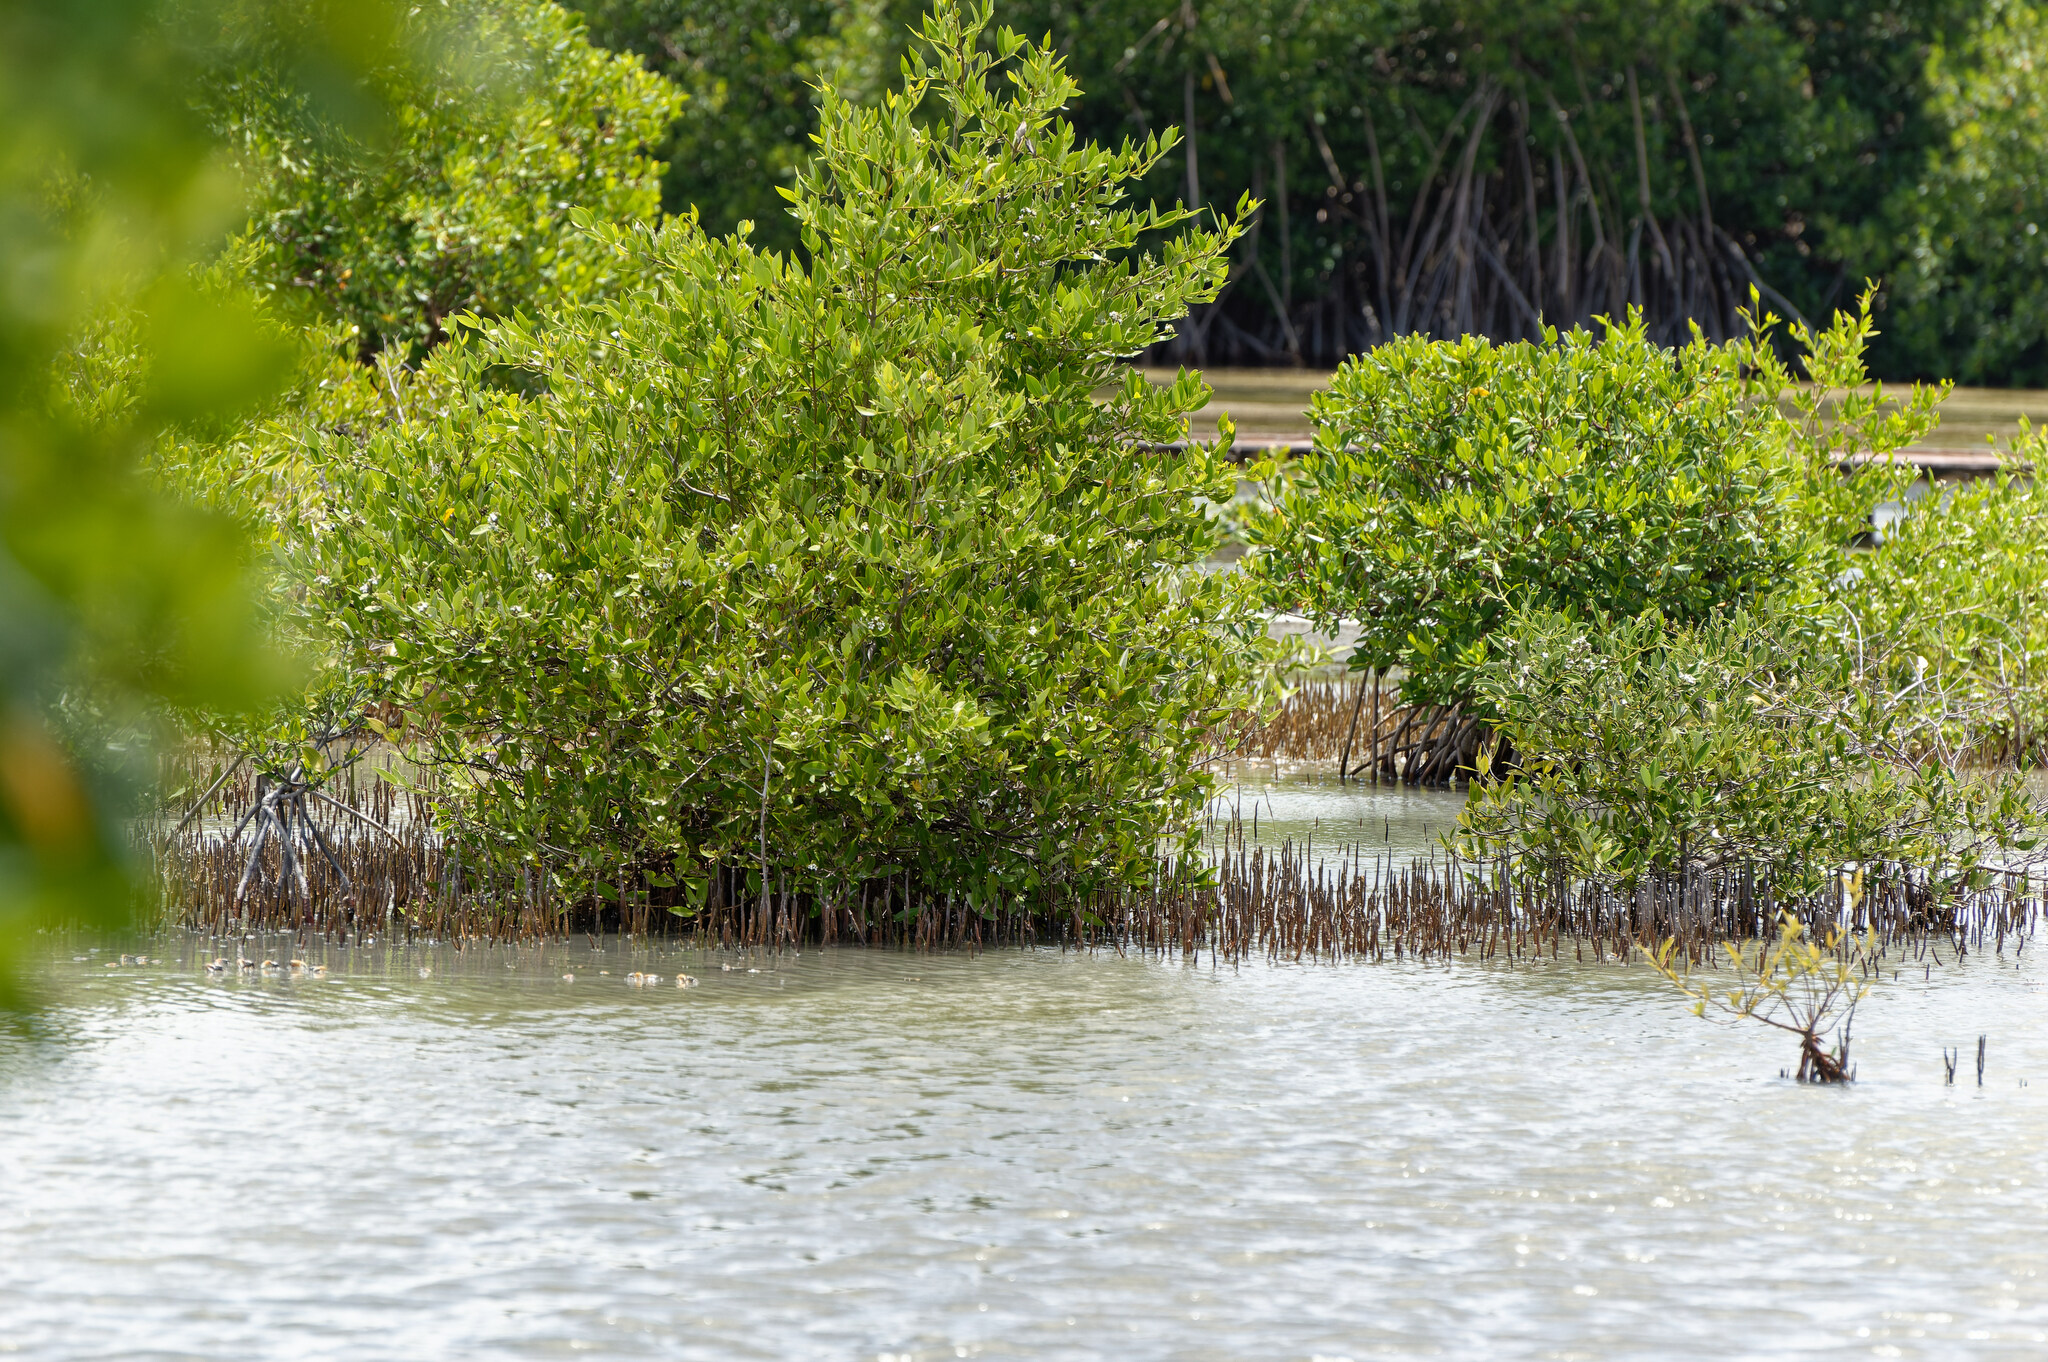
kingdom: Plantae
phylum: Tracheophyta
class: Magnoliopsida
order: Lamiales
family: Acanthaceae
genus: Avicennia
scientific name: Avicennia germinans
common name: Black mangrove
